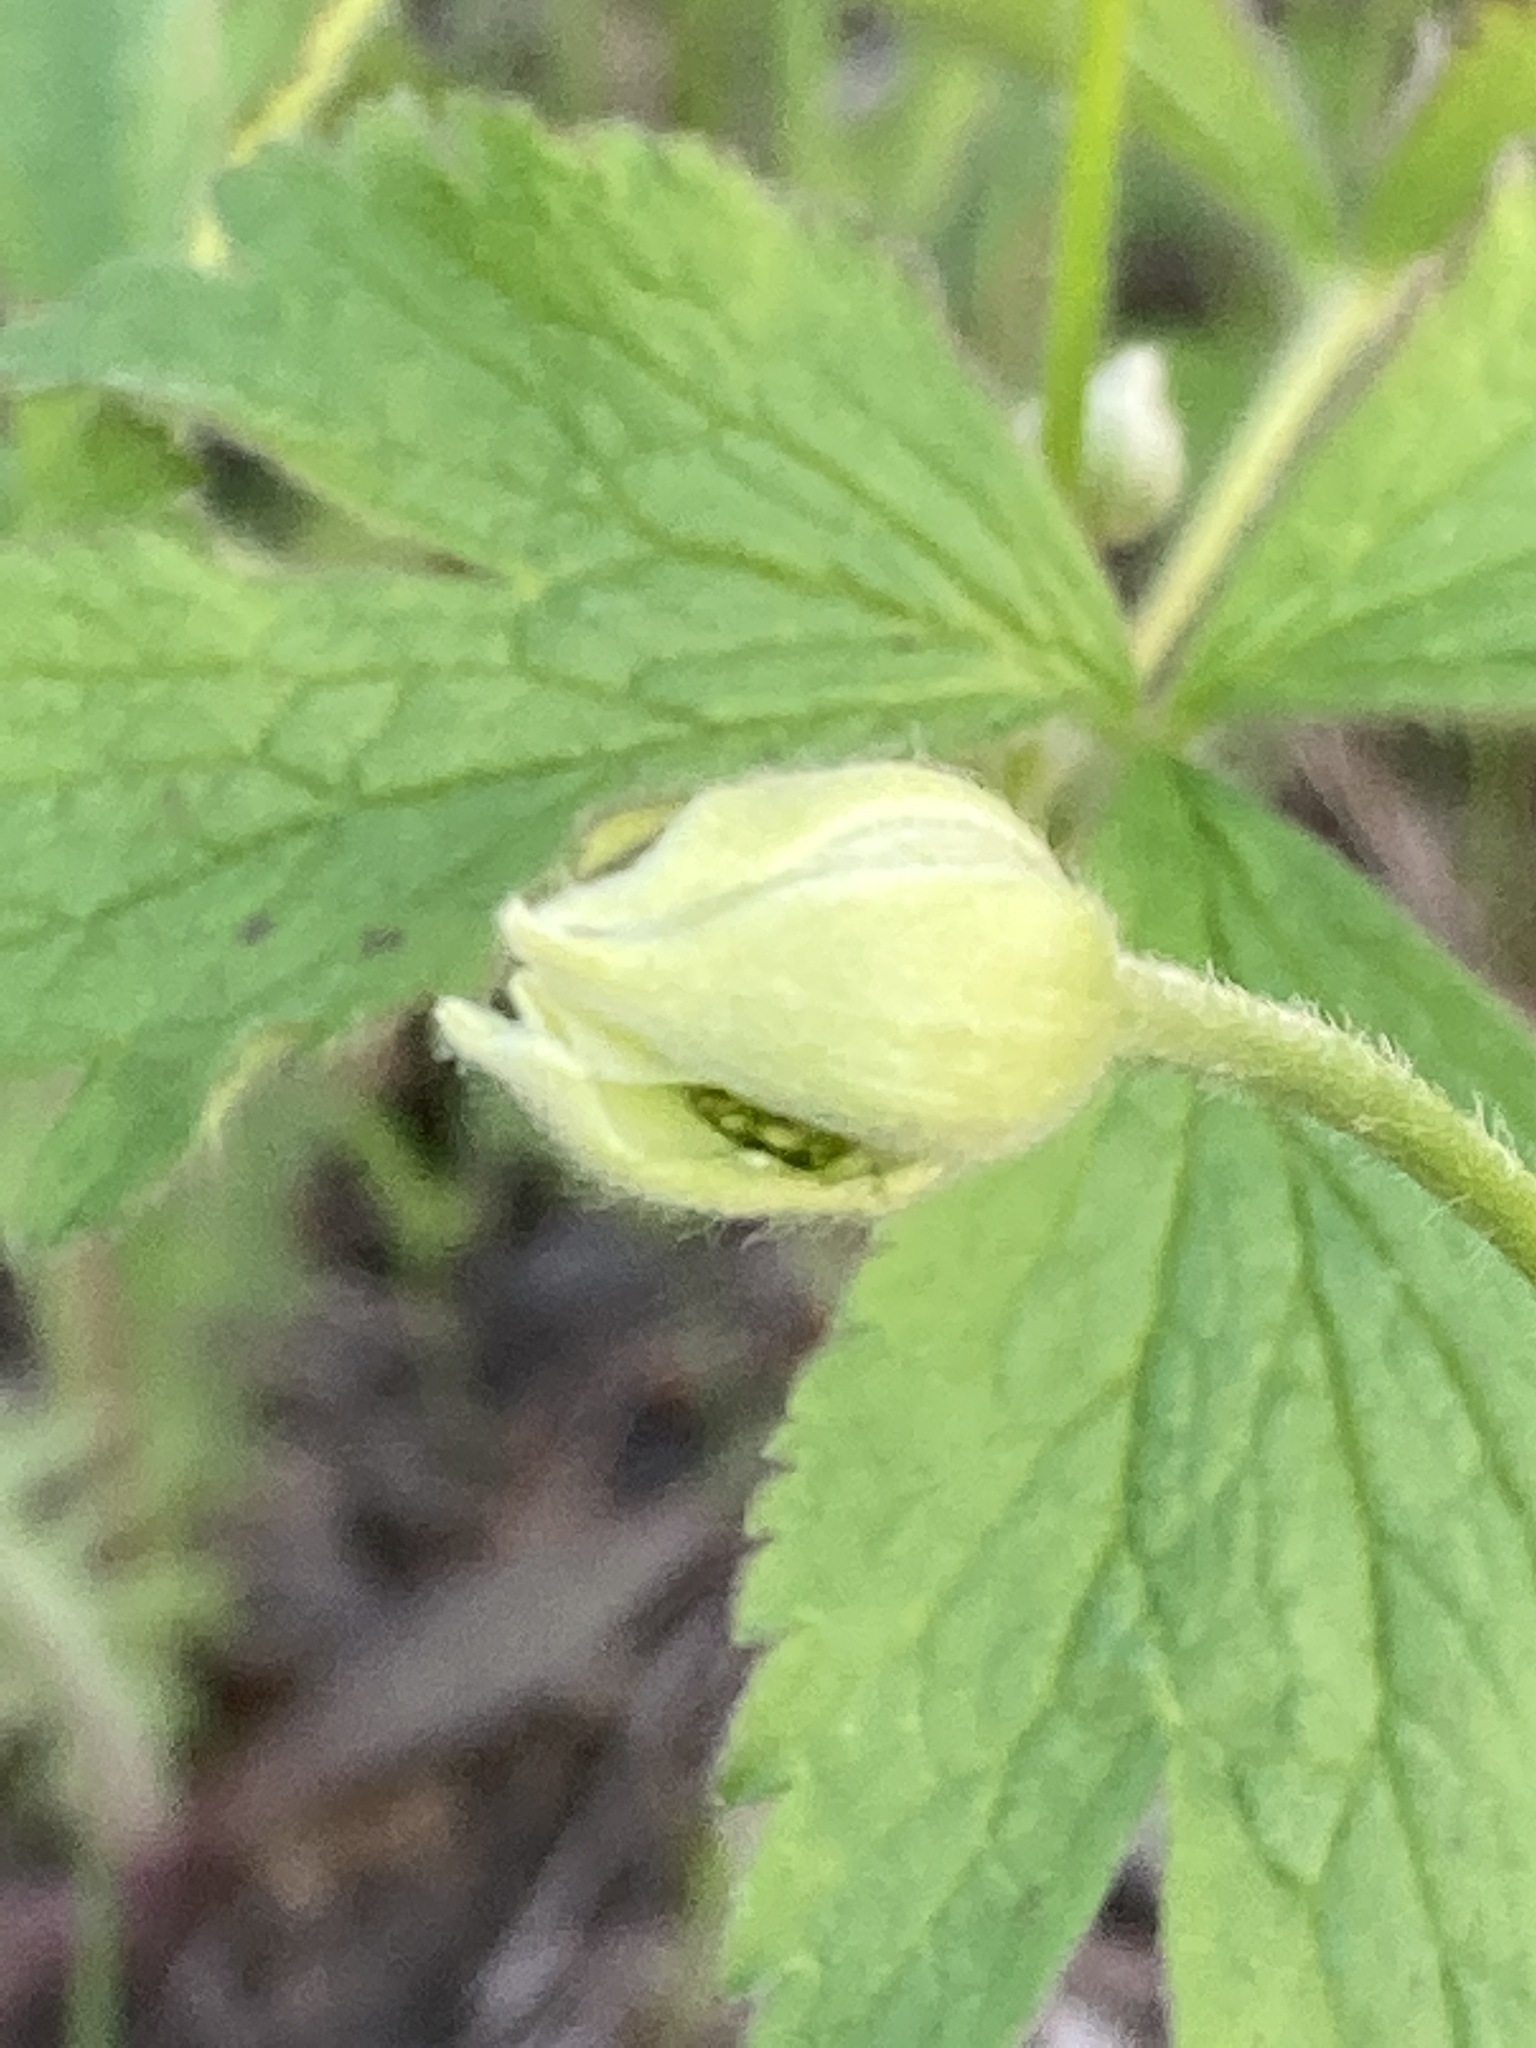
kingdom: Plantae
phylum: Tracheophyta
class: Magnoliopsida
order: Ranunculales
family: Ranunculaceae
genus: Anemone
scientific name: Anemone virginiana
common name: Tall anemone
